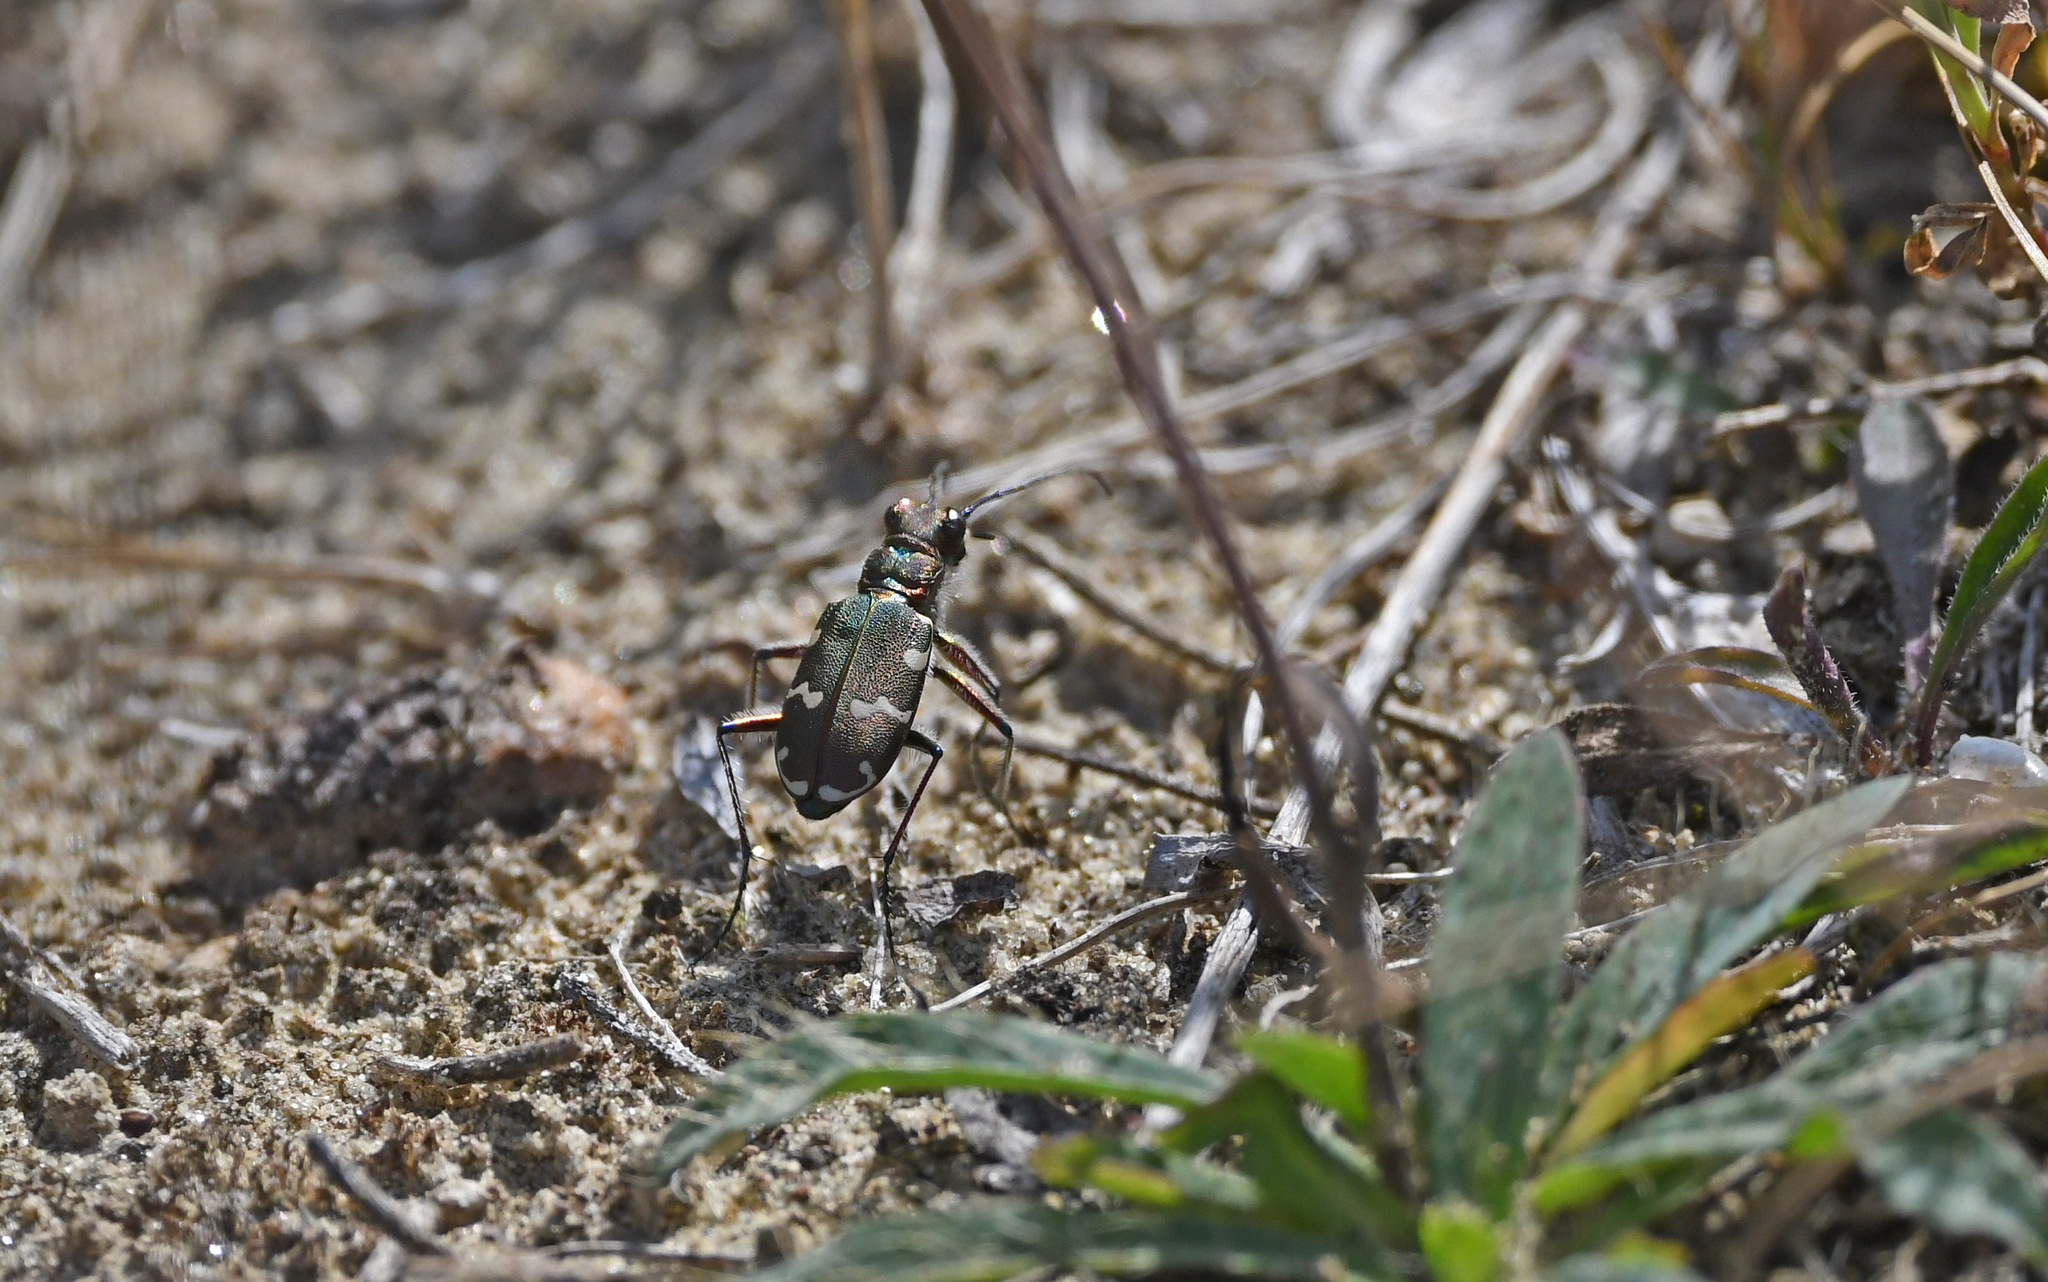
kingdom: Animalia
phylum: Arthropoda
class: Insecta
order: Coleoptera
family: Carabidae
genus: Cicindela
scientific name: Cicindela hybrida
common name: Northern dune tiger beetle
